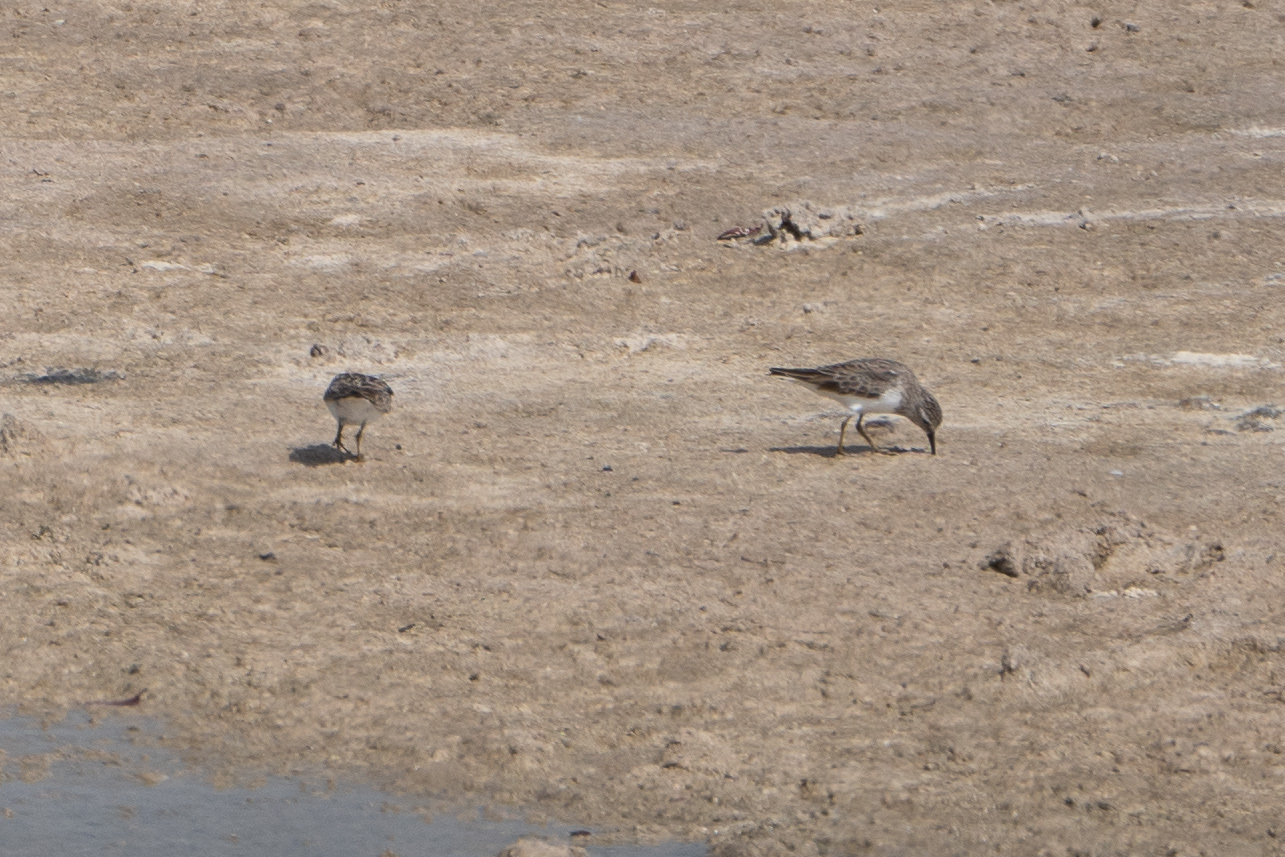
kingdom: Animalia
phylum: Chordata
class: Aves
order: Charadriiformes
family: Scolopacidae
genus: Calidris
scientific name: Calidris minutilla
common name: Least sandpiper
